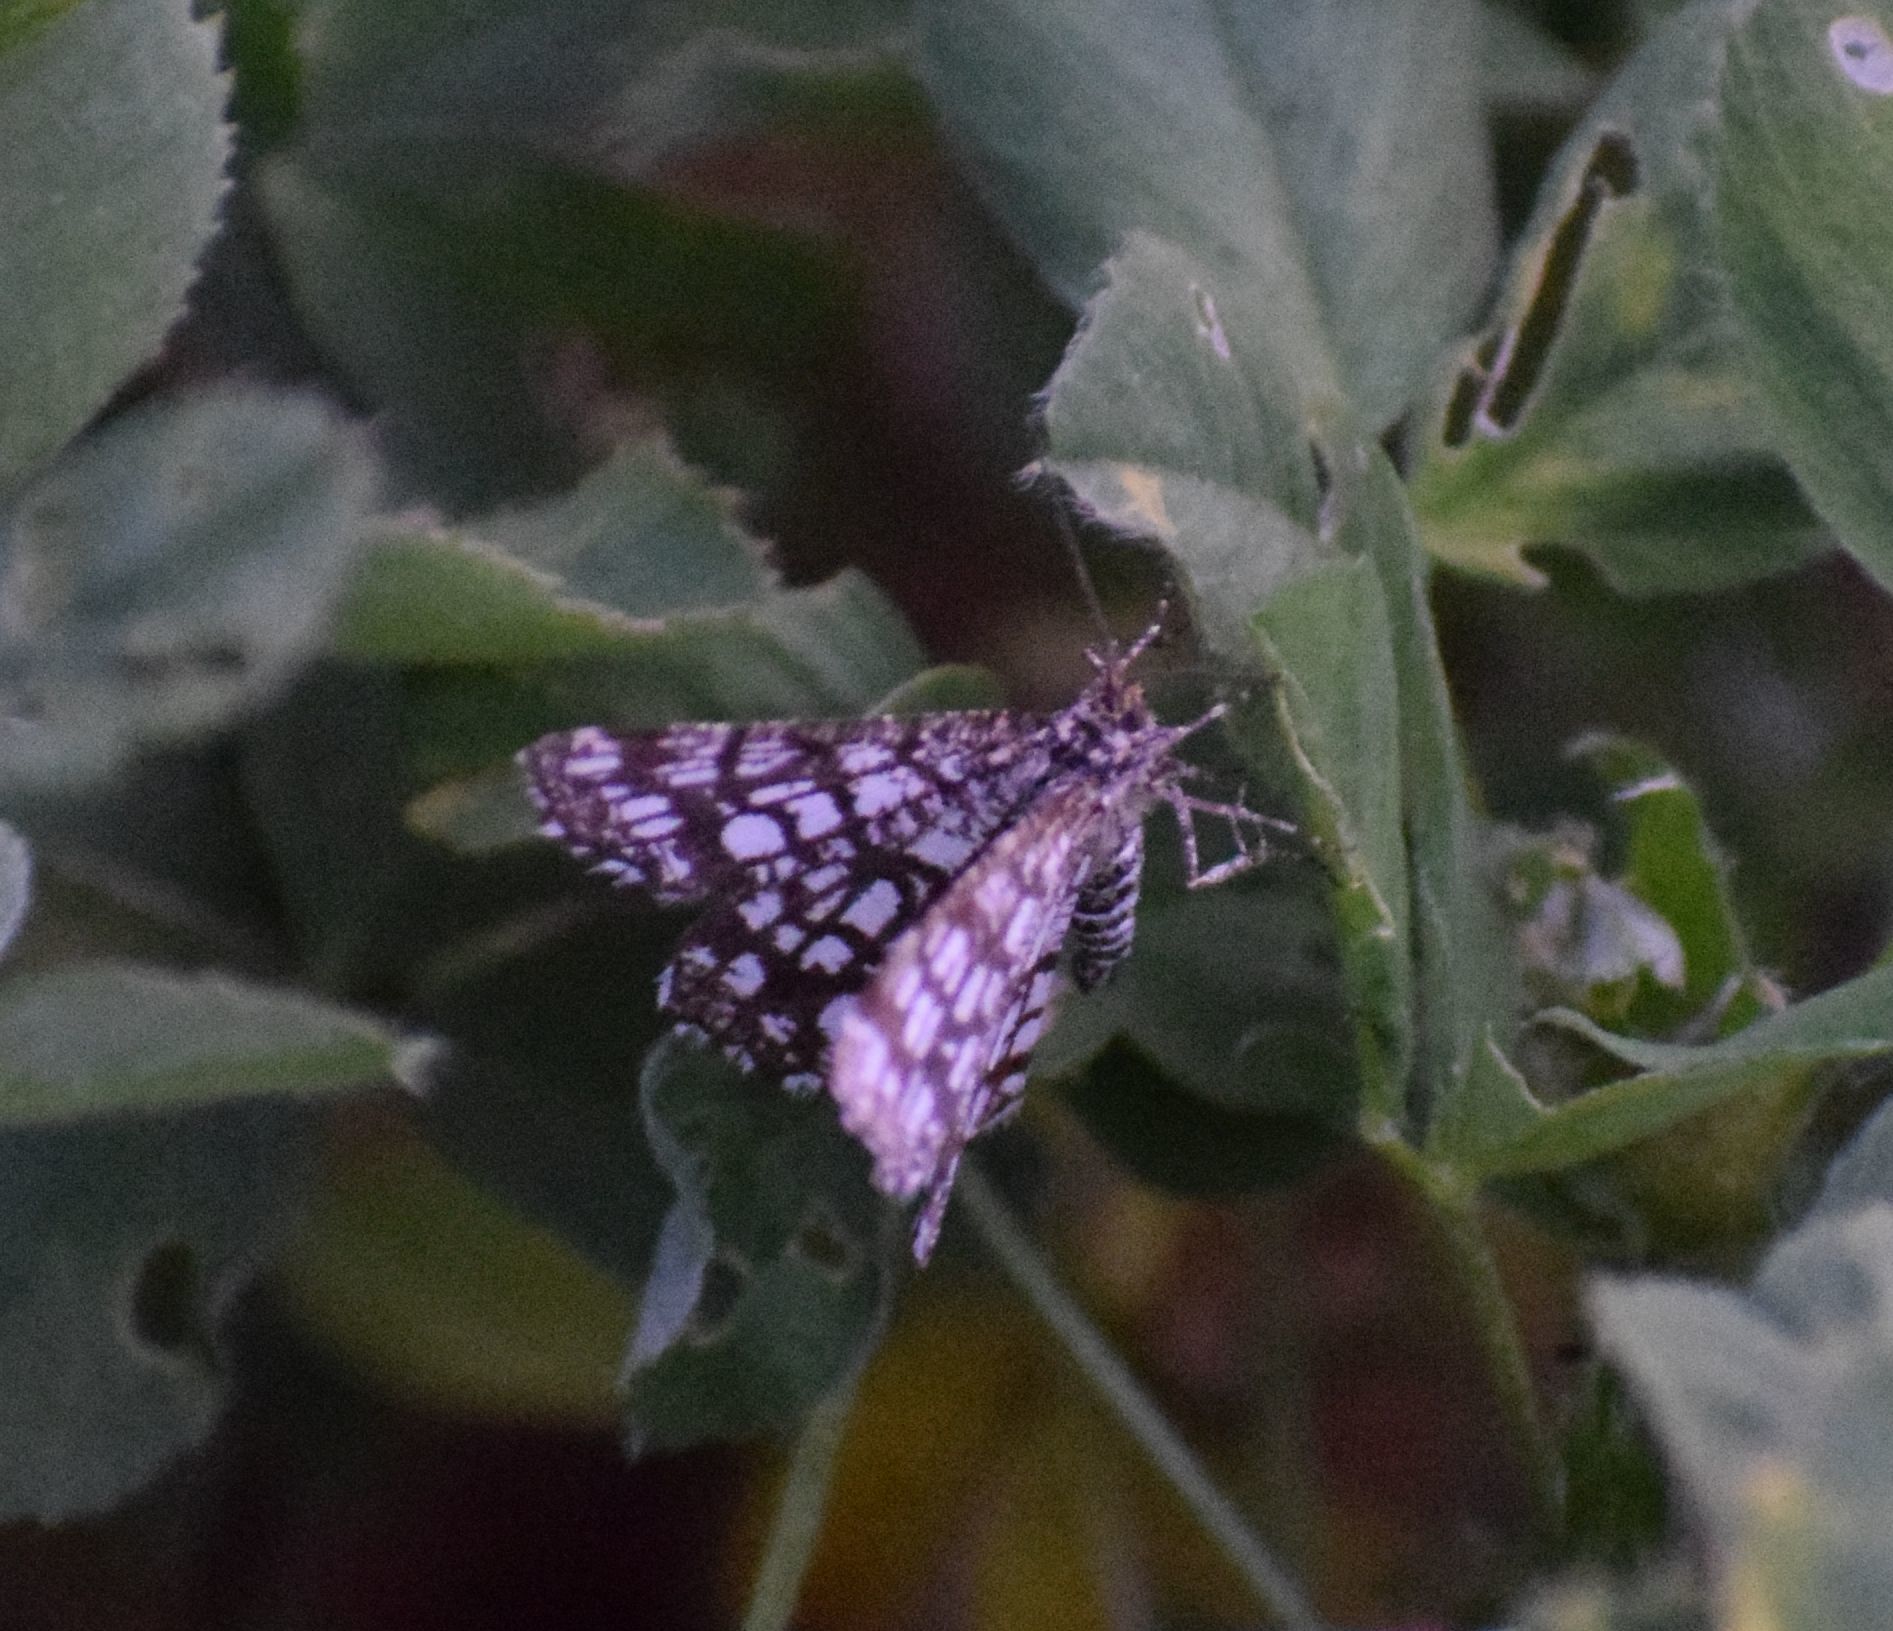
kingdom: Animalia
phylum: Arthropoda
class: Insecta
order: Lepidoptera
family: Geometridae
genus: Chiasmia
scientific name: Chiasmia clathrata
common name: Latticed heath
